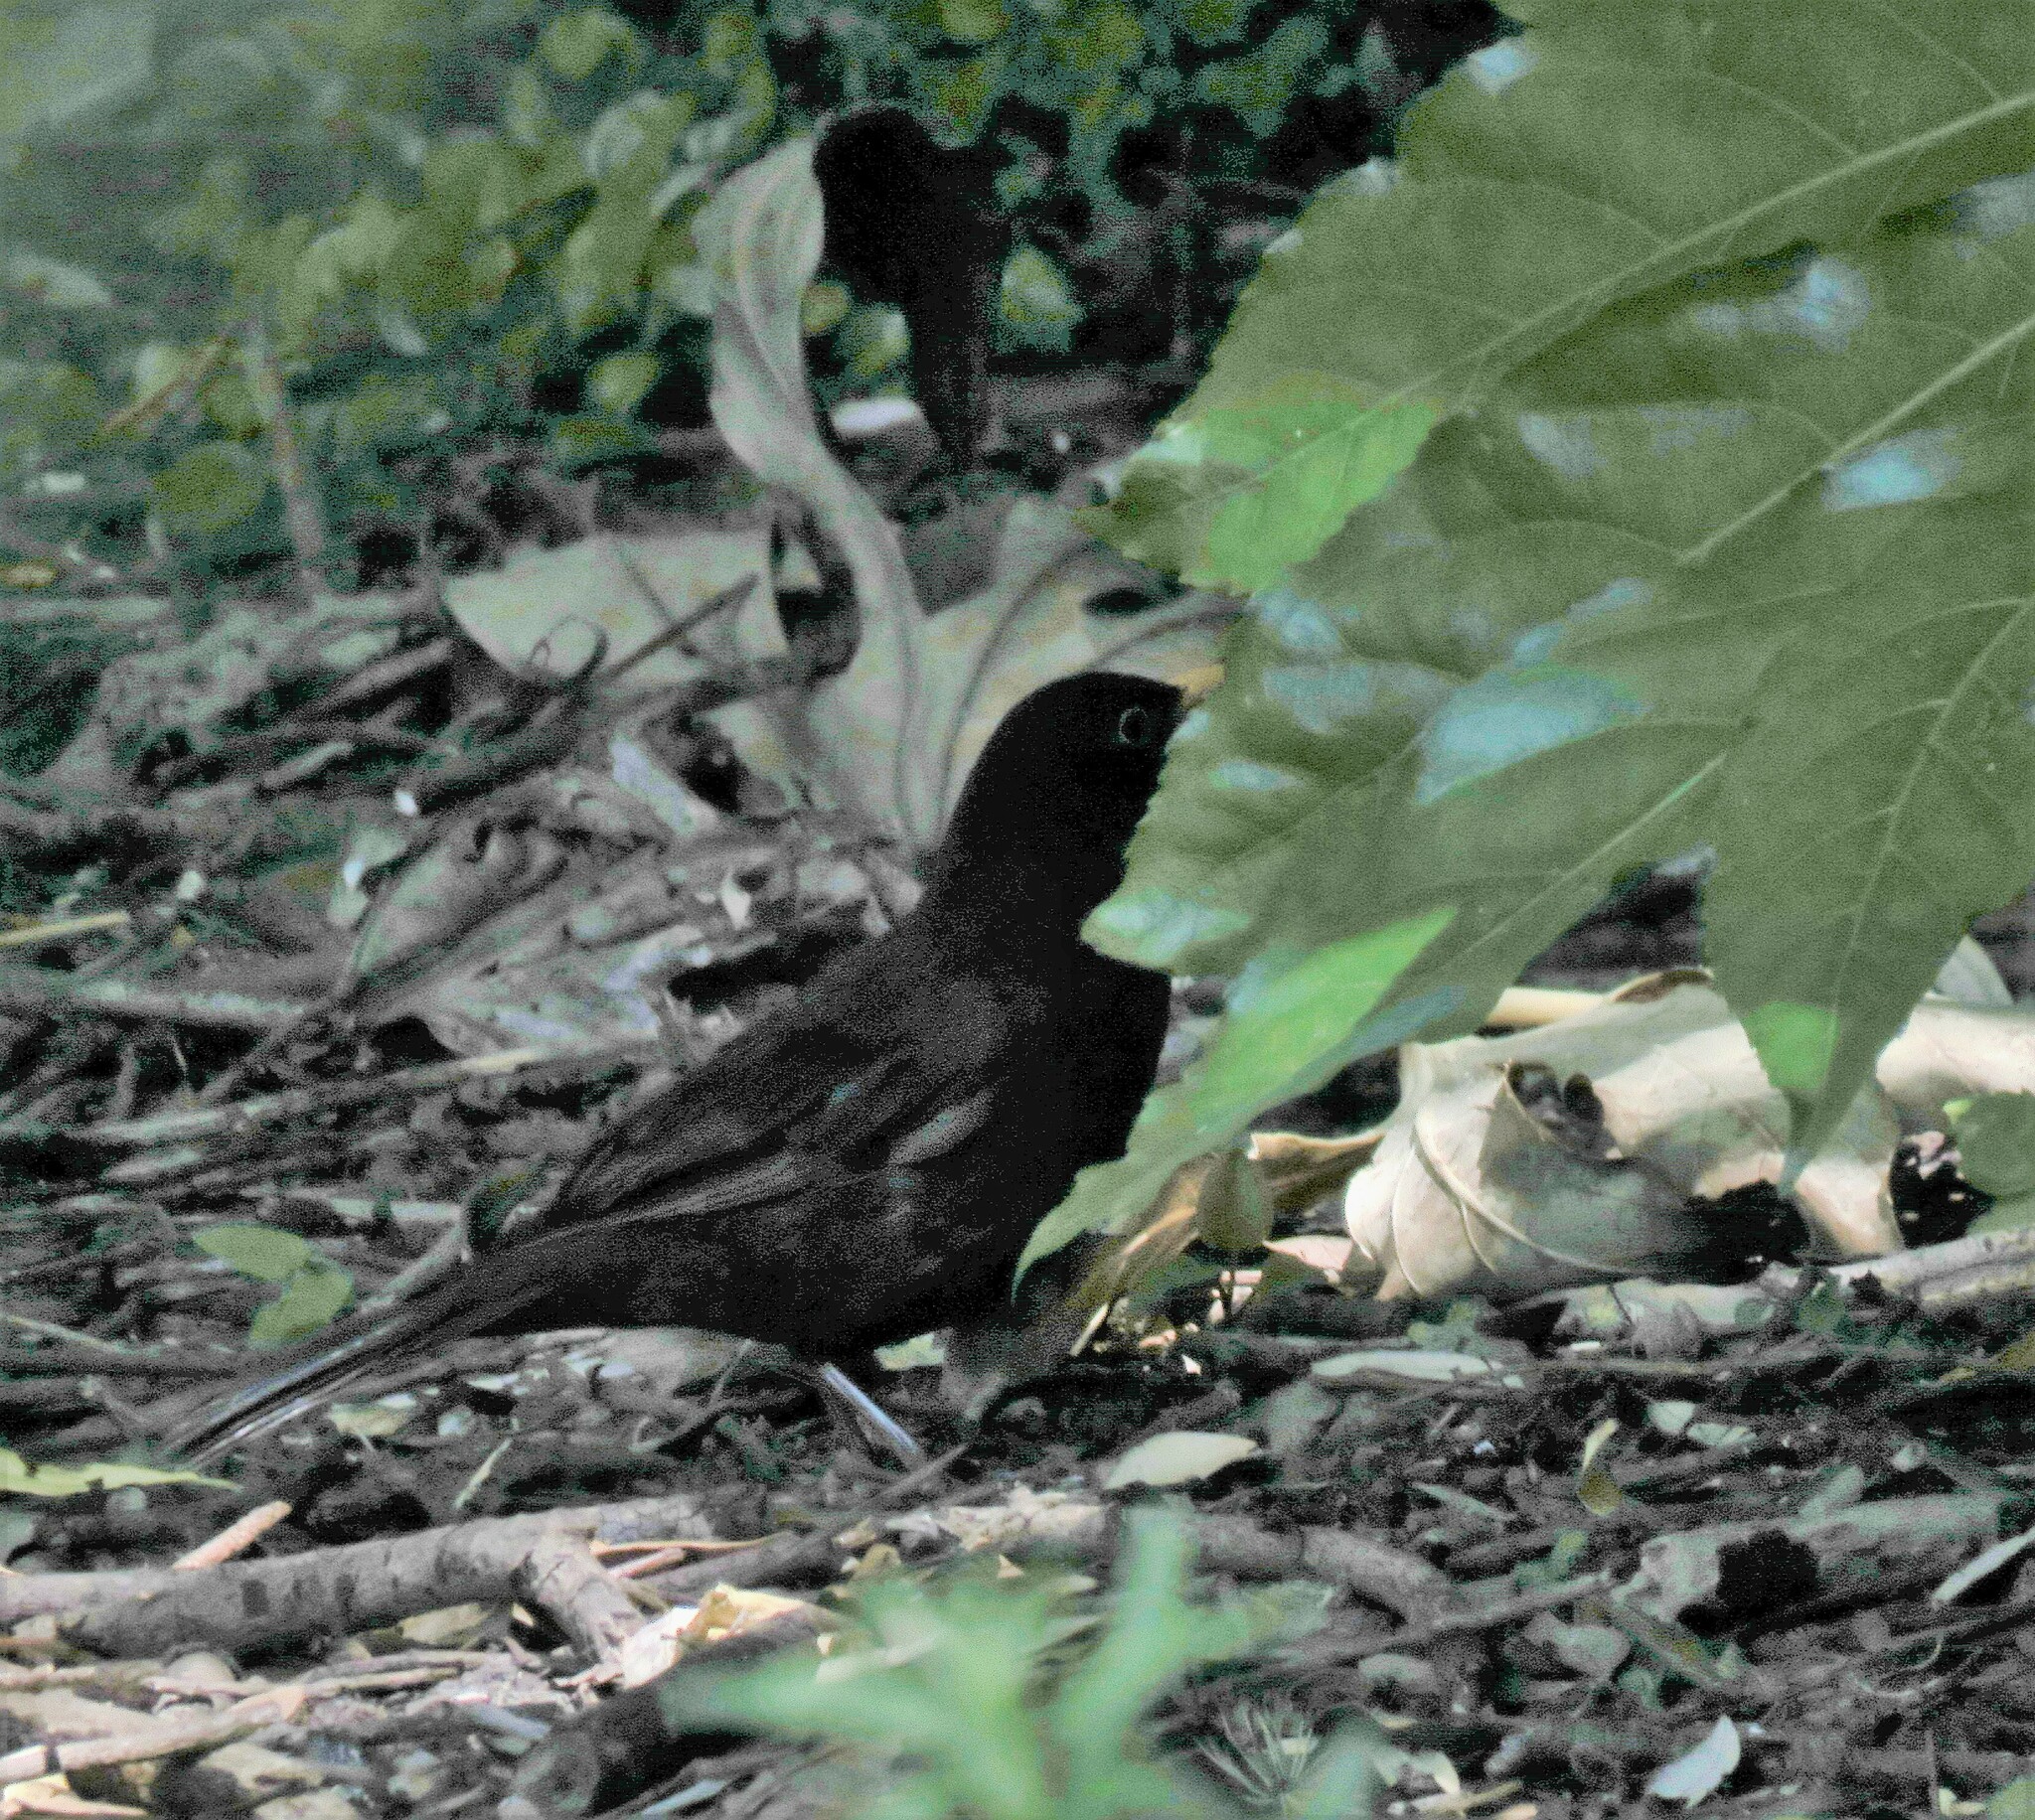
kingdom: Animalia
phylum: Chordata
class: Aves
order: Passeriformes
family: Turdidae
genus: Turdus
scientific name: Turdus merula
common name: Common blackbird
